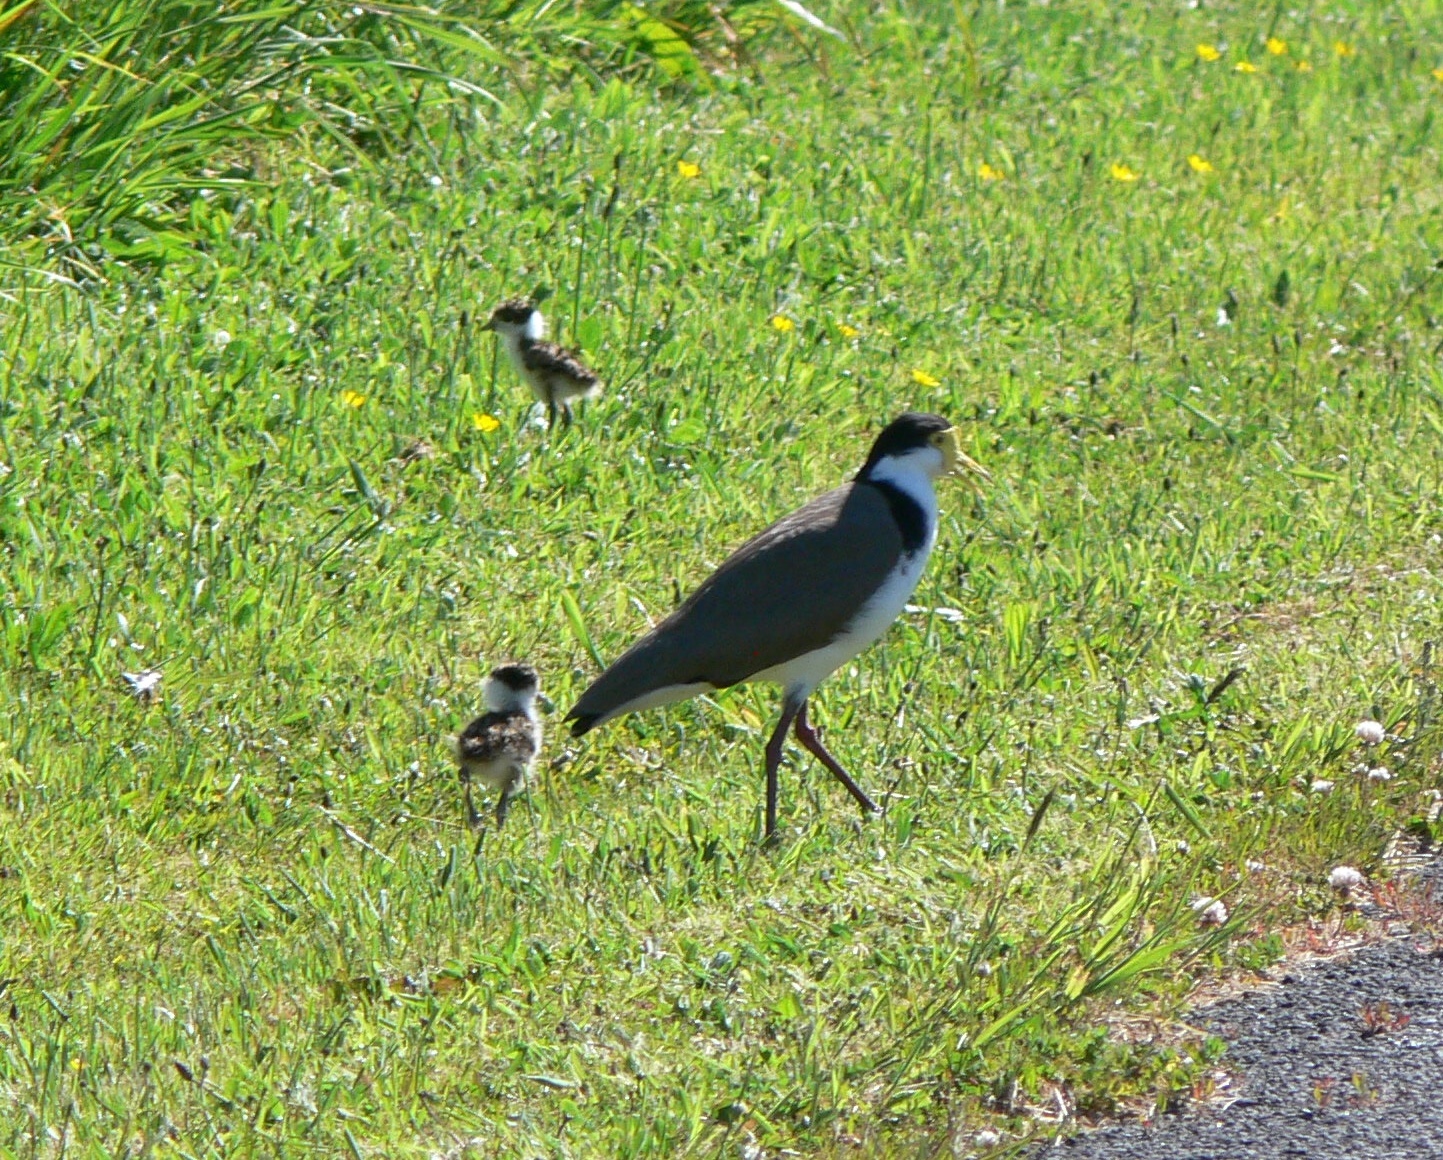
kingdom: Animalia
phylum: Chordata
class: Aves
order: Charadriiformes
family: Charadriidae
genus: Vanellus
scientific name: Vanellus miles
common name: Masked lapwing
